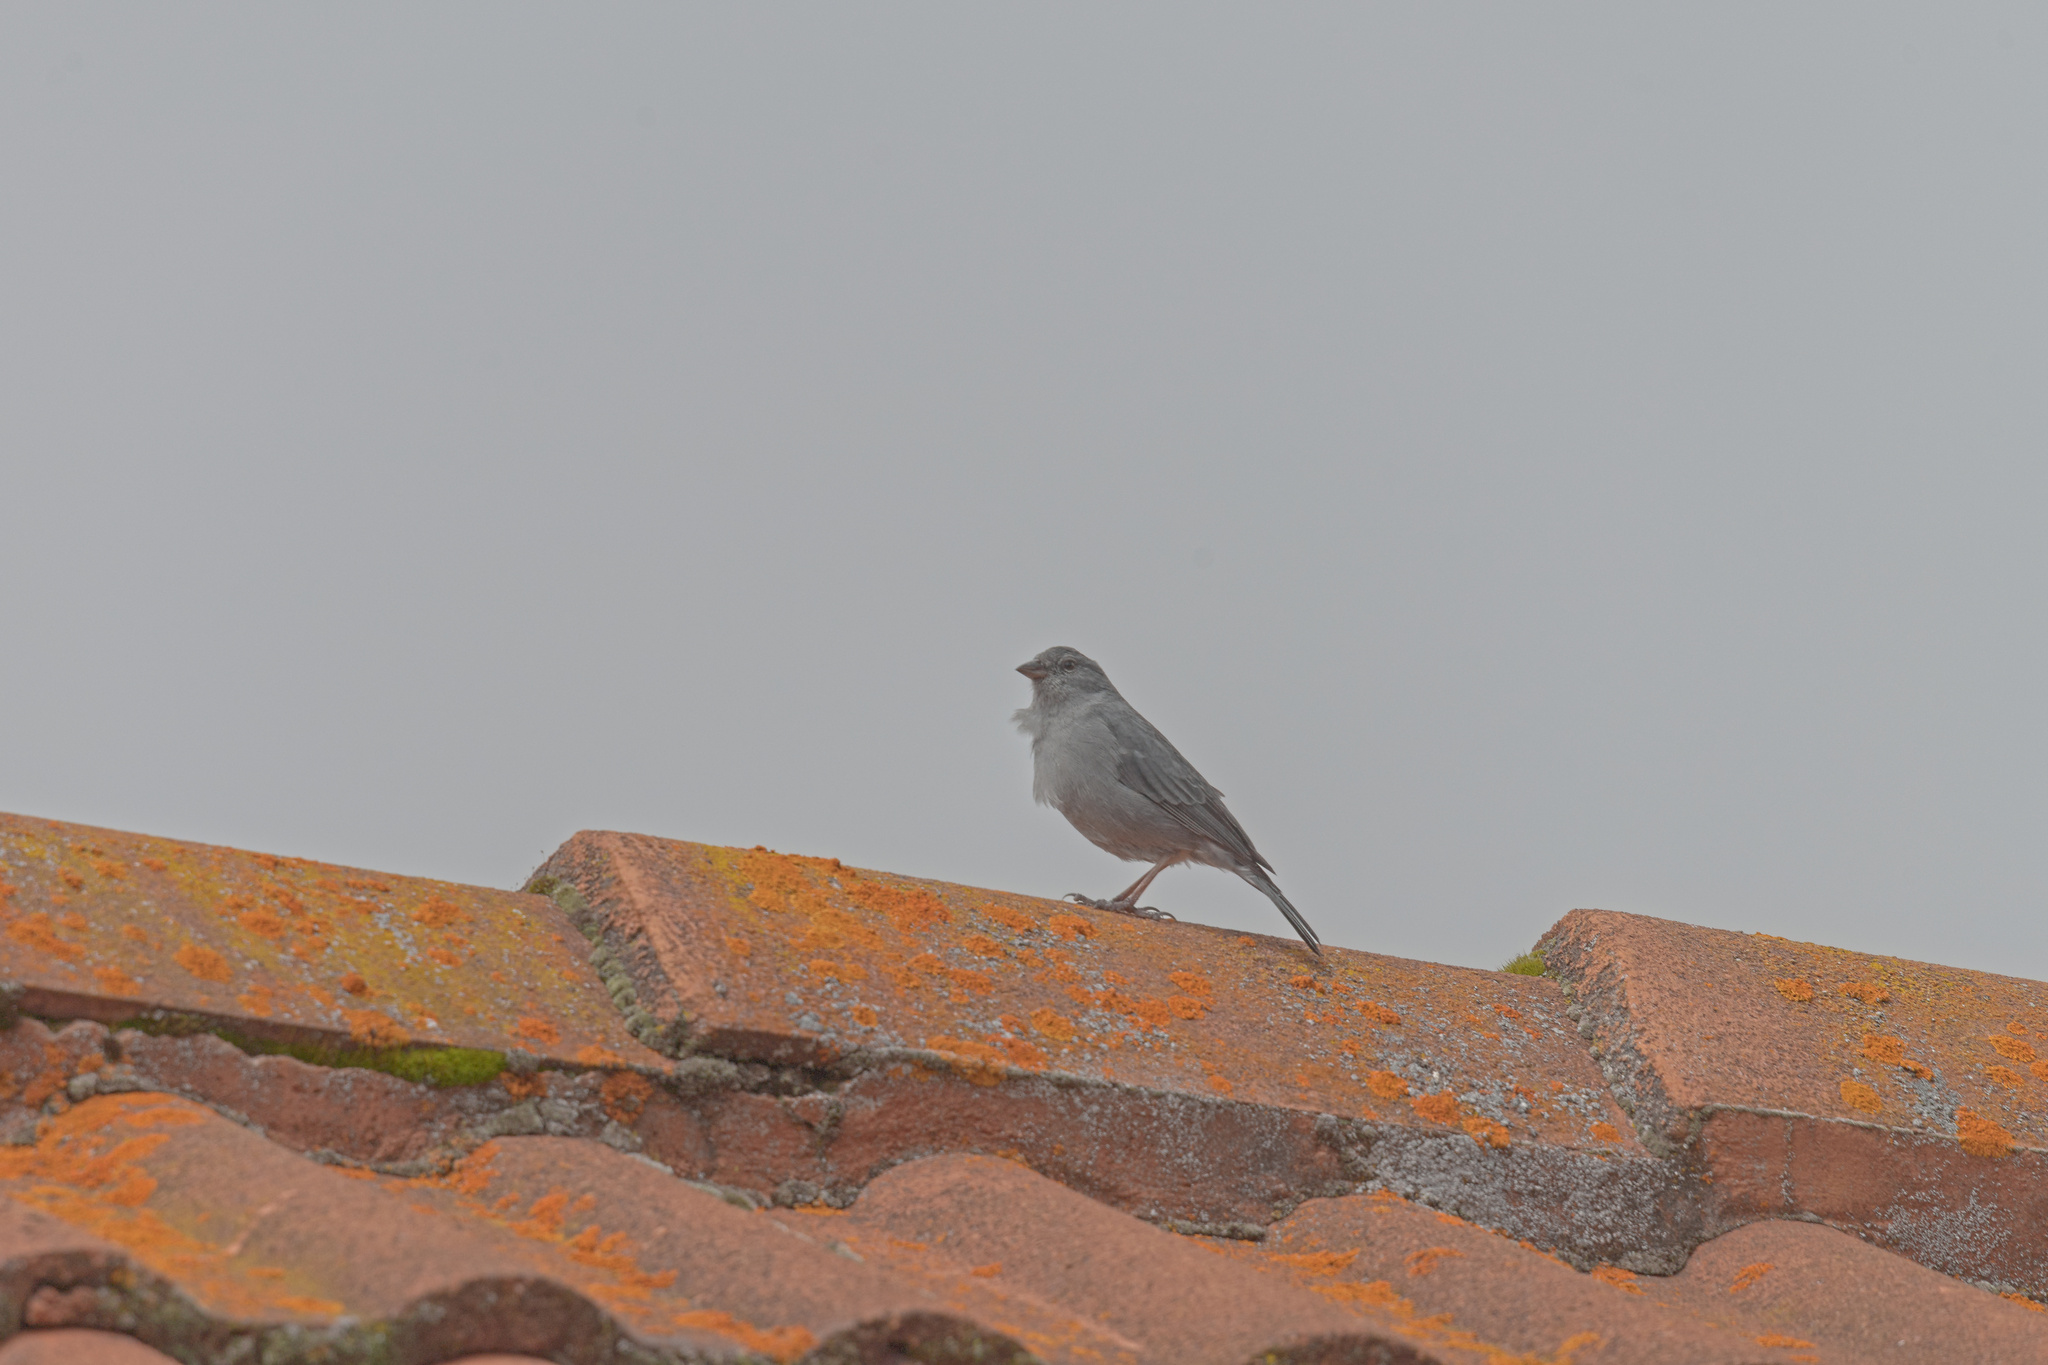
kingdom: Animalia
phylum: Chordata
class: Aves
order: Passeriformes
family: Thraupidae
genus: Geospizopsis
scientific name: Geospizopsis unicolor
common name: Plumbeous sierra-finch
